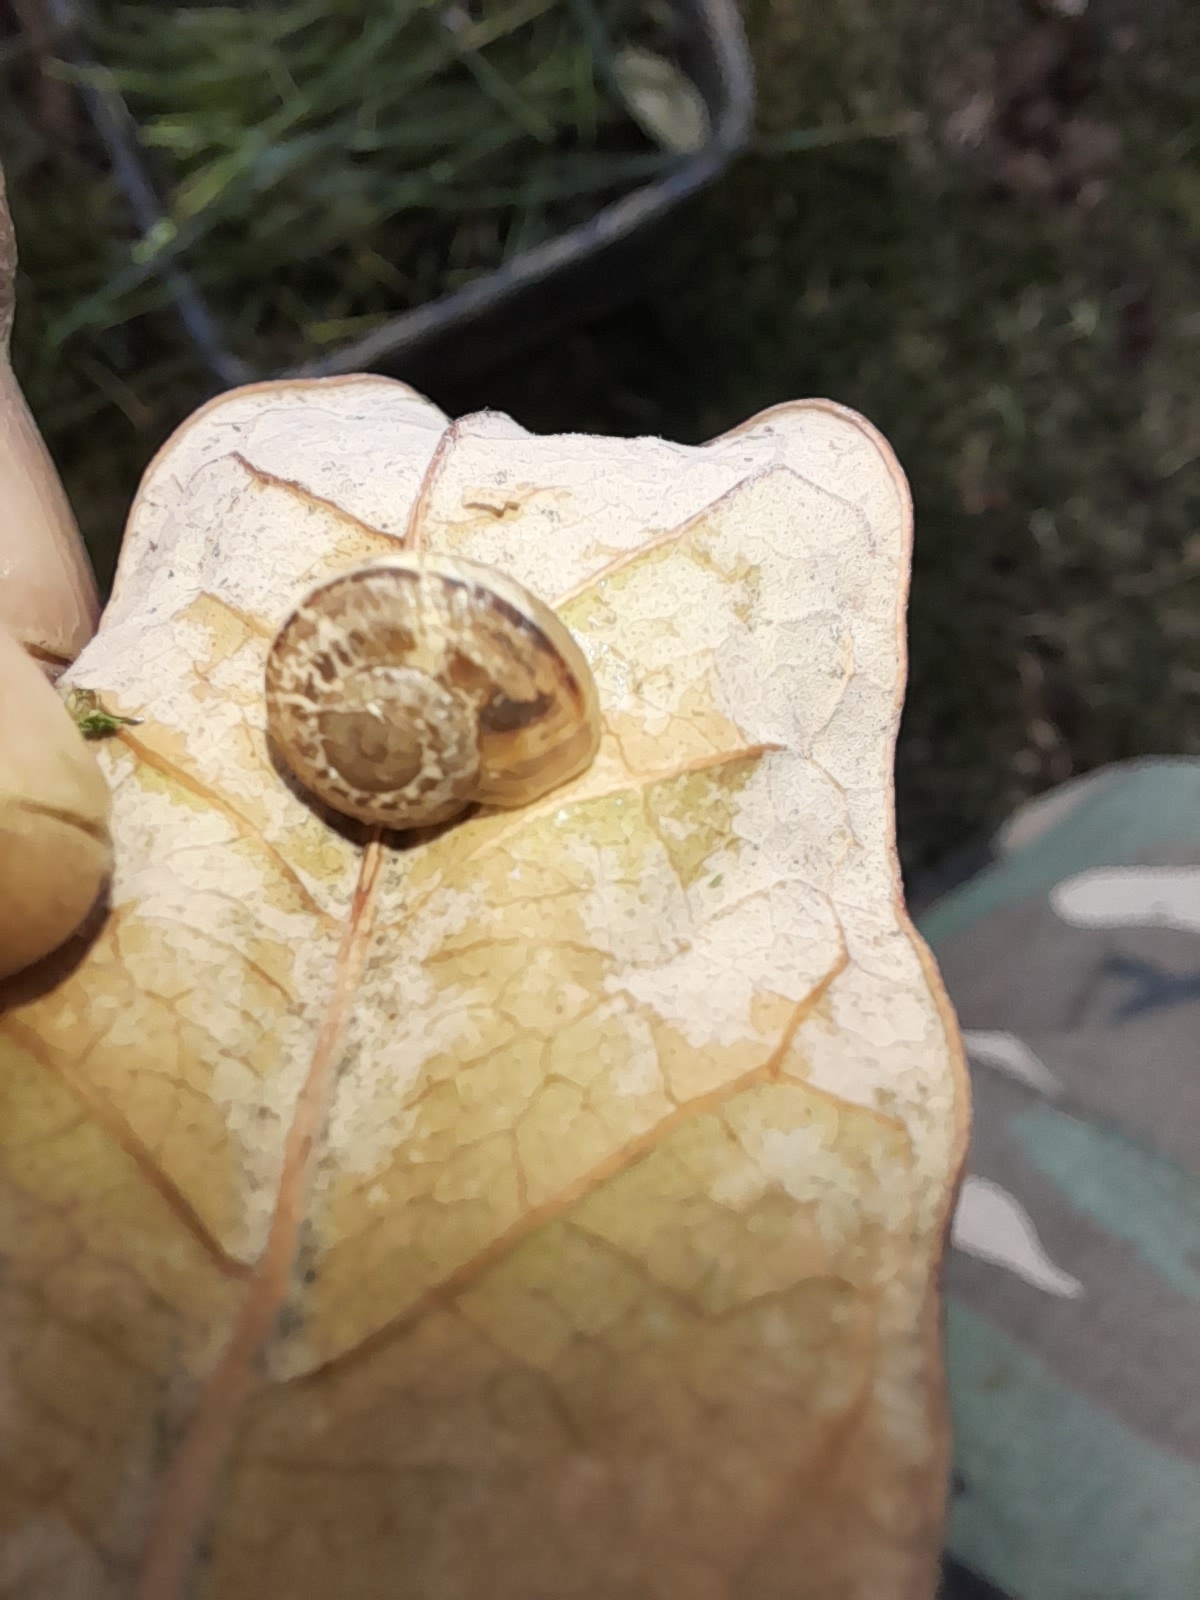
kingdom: Animalia
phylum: Mollusca
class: Gastropoda
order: Stylommatophora
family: Helicidae
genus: Eobania
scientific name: Eobania vermiculata
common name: Chocolateband snail
